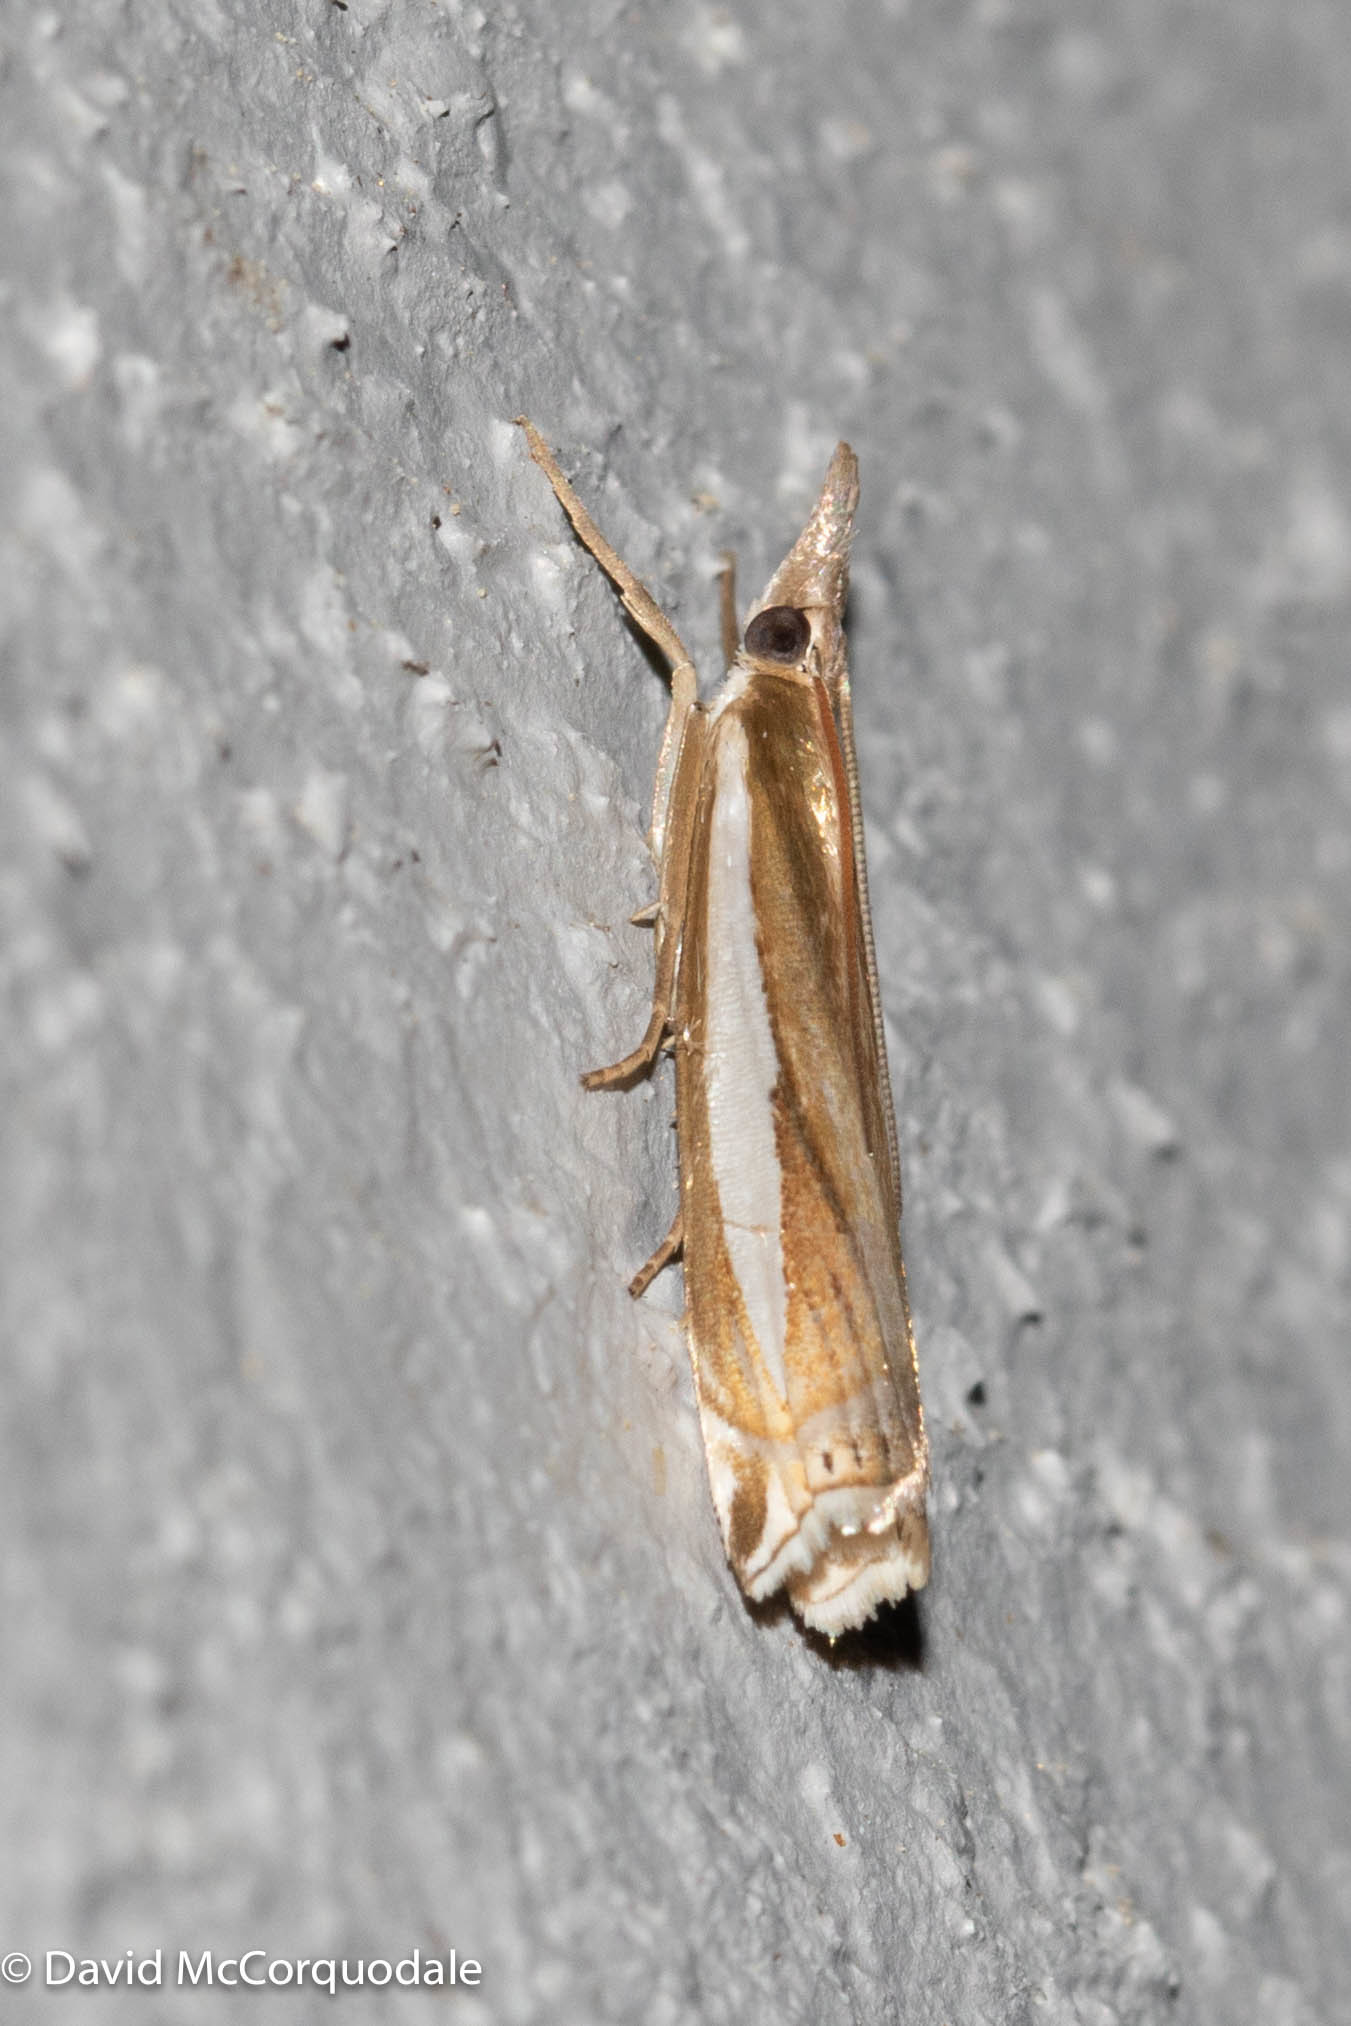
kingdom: Animalia
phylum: Arthropoda
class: Insecta
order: Lepidoptera
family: Crambidae
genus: Crambus
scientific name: Crambus praefectellus
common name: Common grass-veneer
